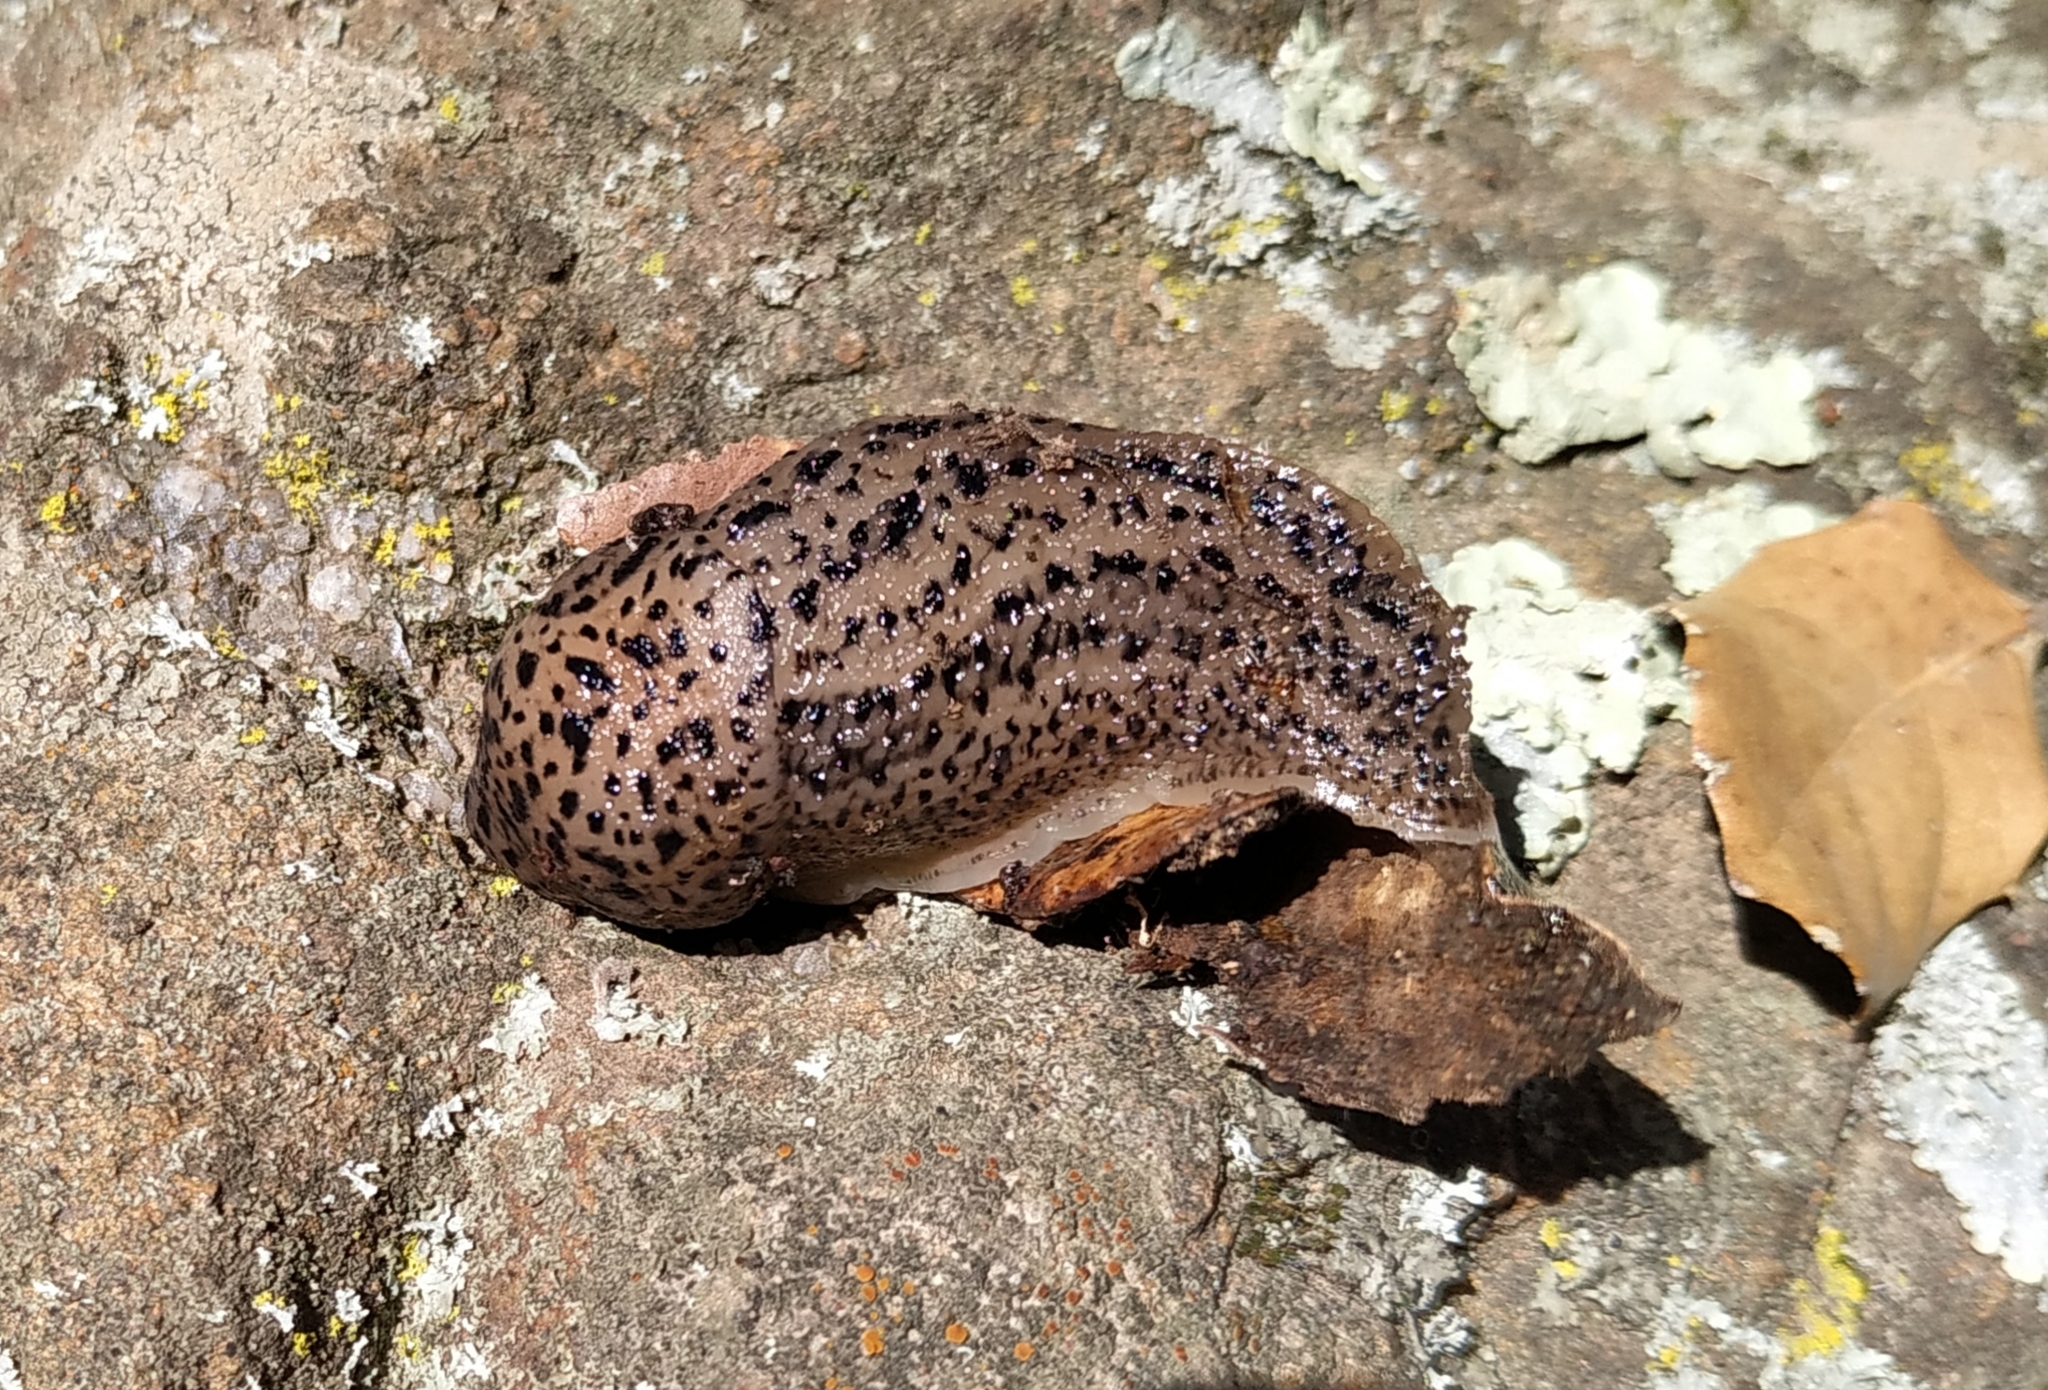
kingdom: Animalia
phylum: Mollusca
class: Gastropoda
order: Stylommatophora
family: Limacidae
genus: Limax
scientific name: Limax maximus
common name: Great grey slug
